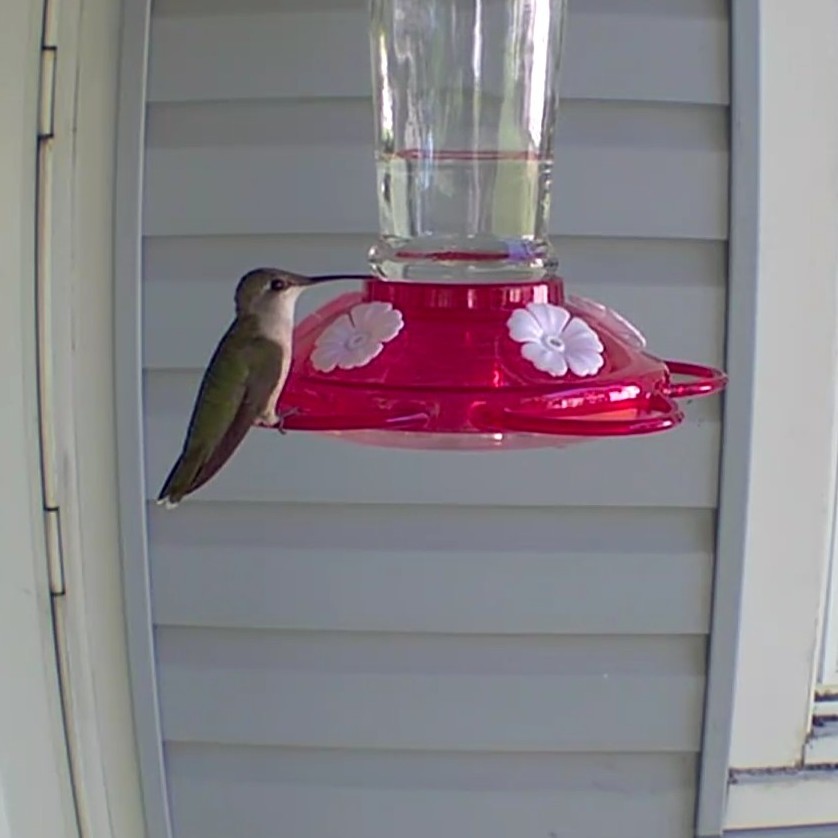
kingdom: Animalia
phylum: Chordata
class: Aves
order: Apodiformes
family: Trochilidae
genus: Archilochus
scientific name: Archilochus colubris
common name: Ruby-throated hummingbird
